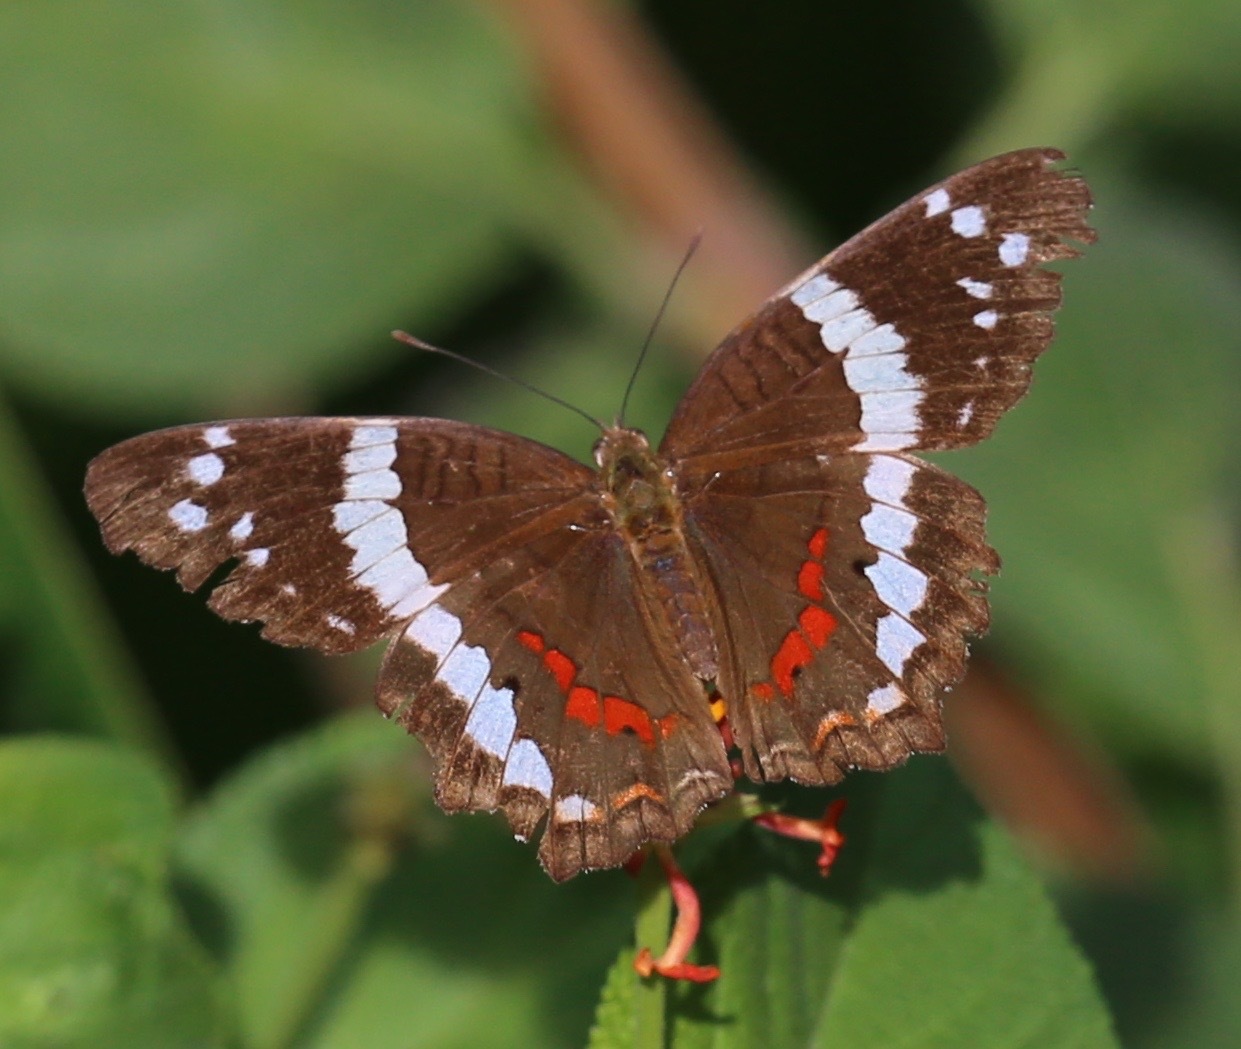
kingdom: Animalia
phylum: Arthropoda
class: Insecta
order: Lepidoptera
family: Nymphalidae
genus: Anartia
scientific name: Anartia fatima
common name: Banded peacock
